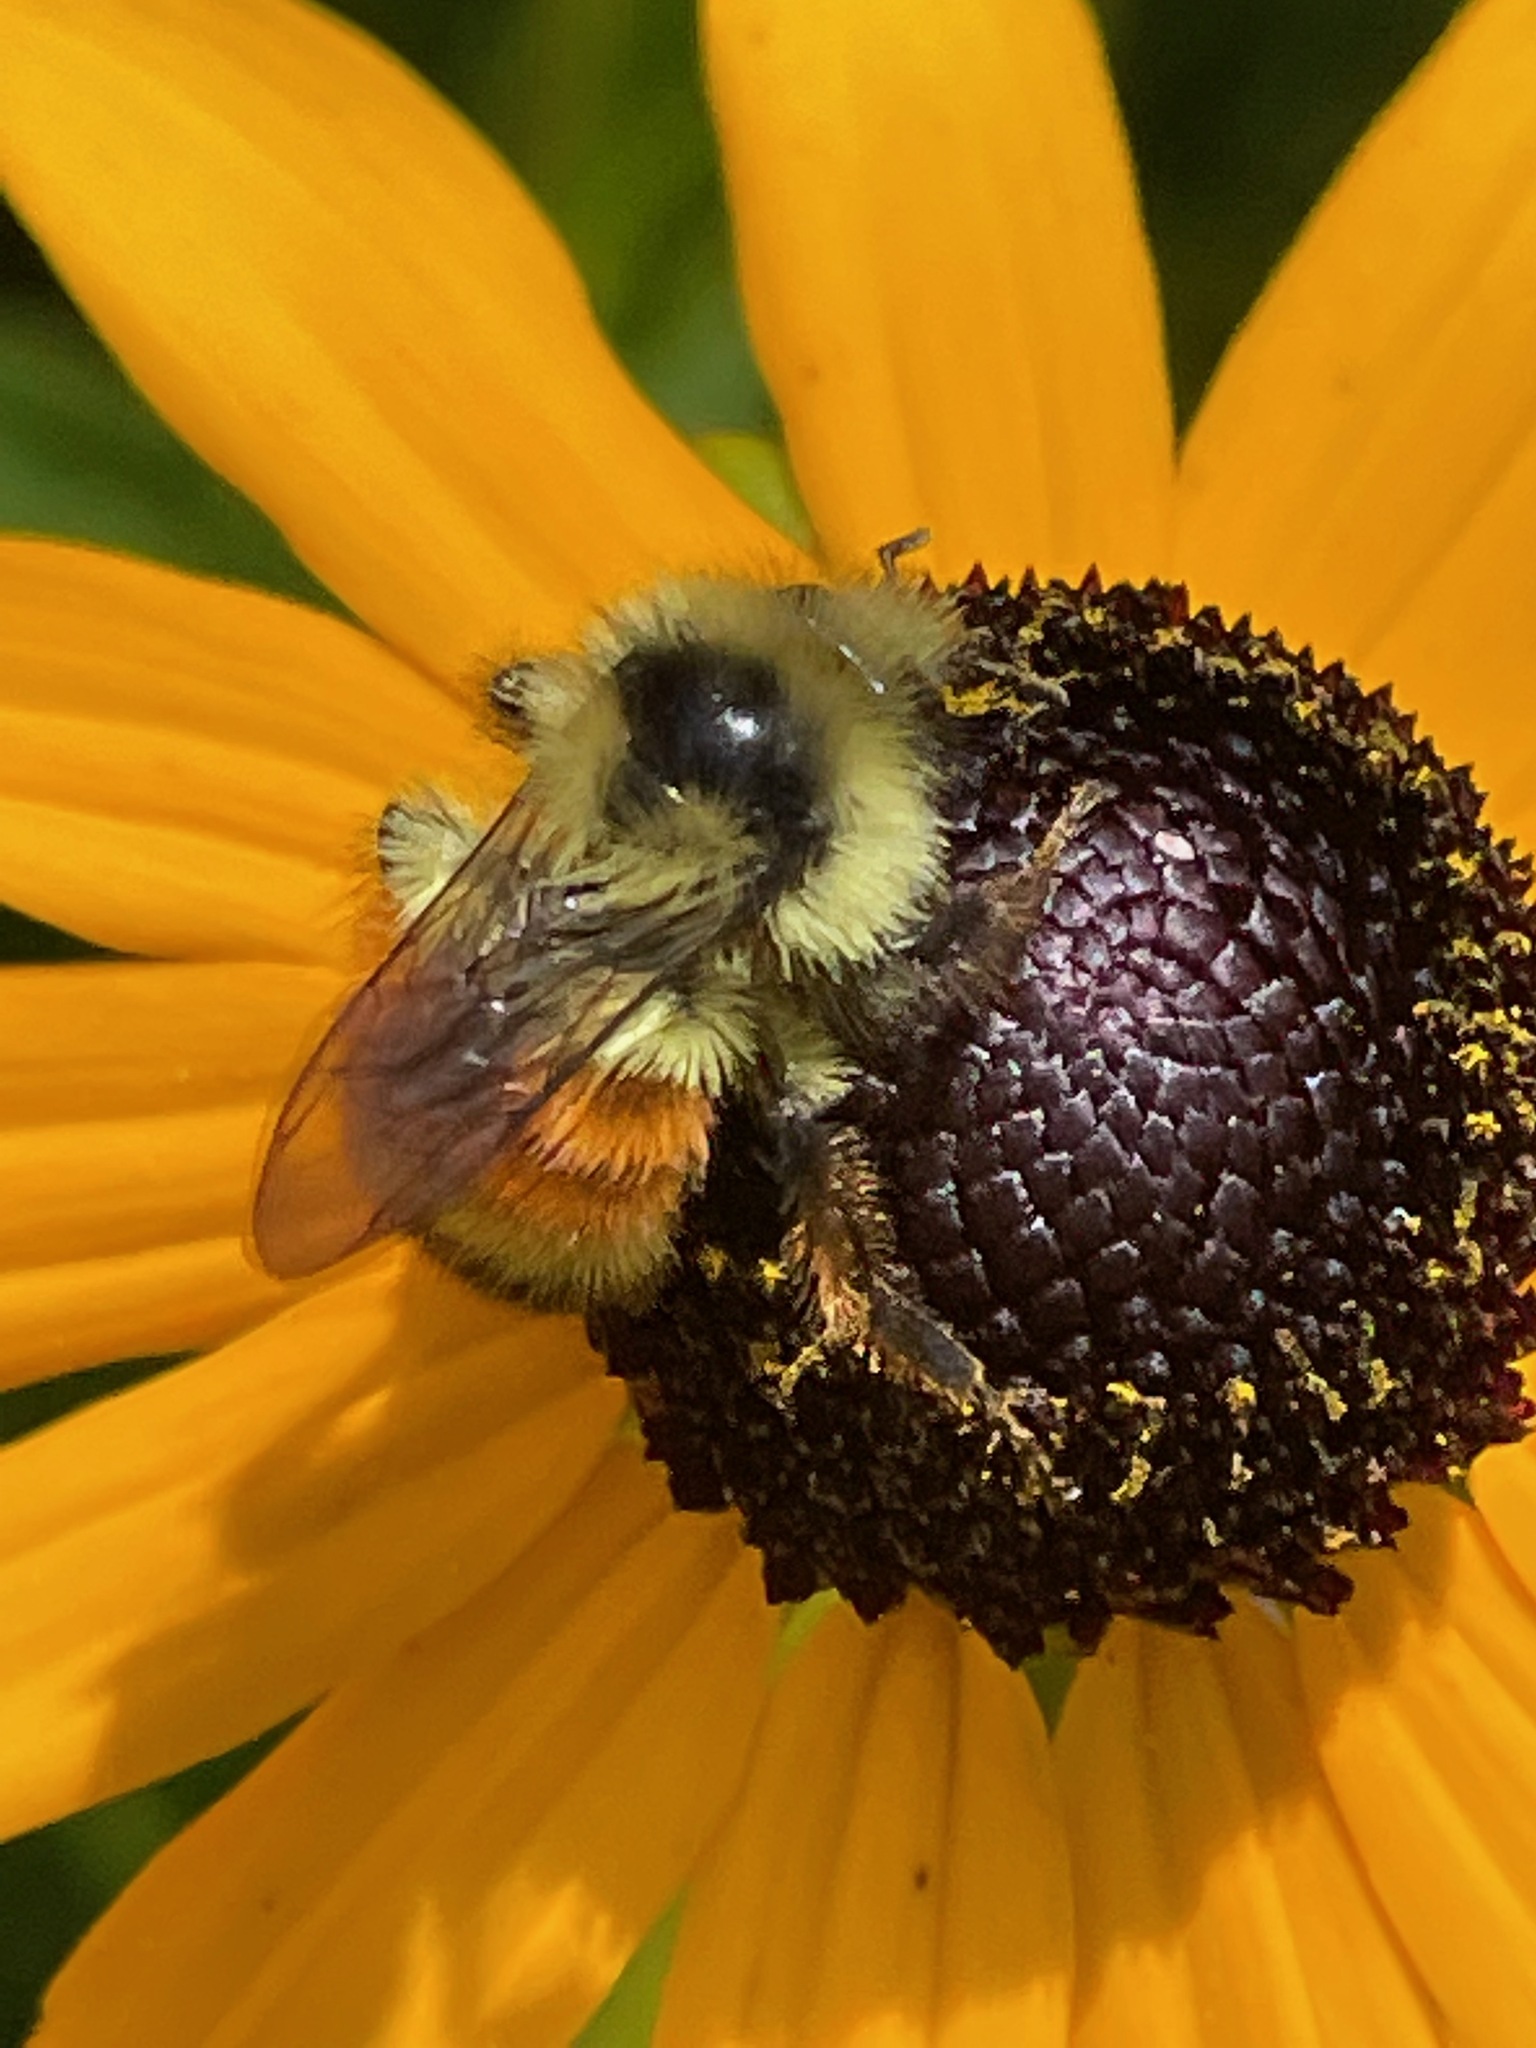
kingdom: Animalia
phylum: Arthropoda
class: Insecta
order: Hymenoptera
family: Apidae
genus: Bombus
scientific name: Bombus ternarius
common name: Tri-colored bumble bee
